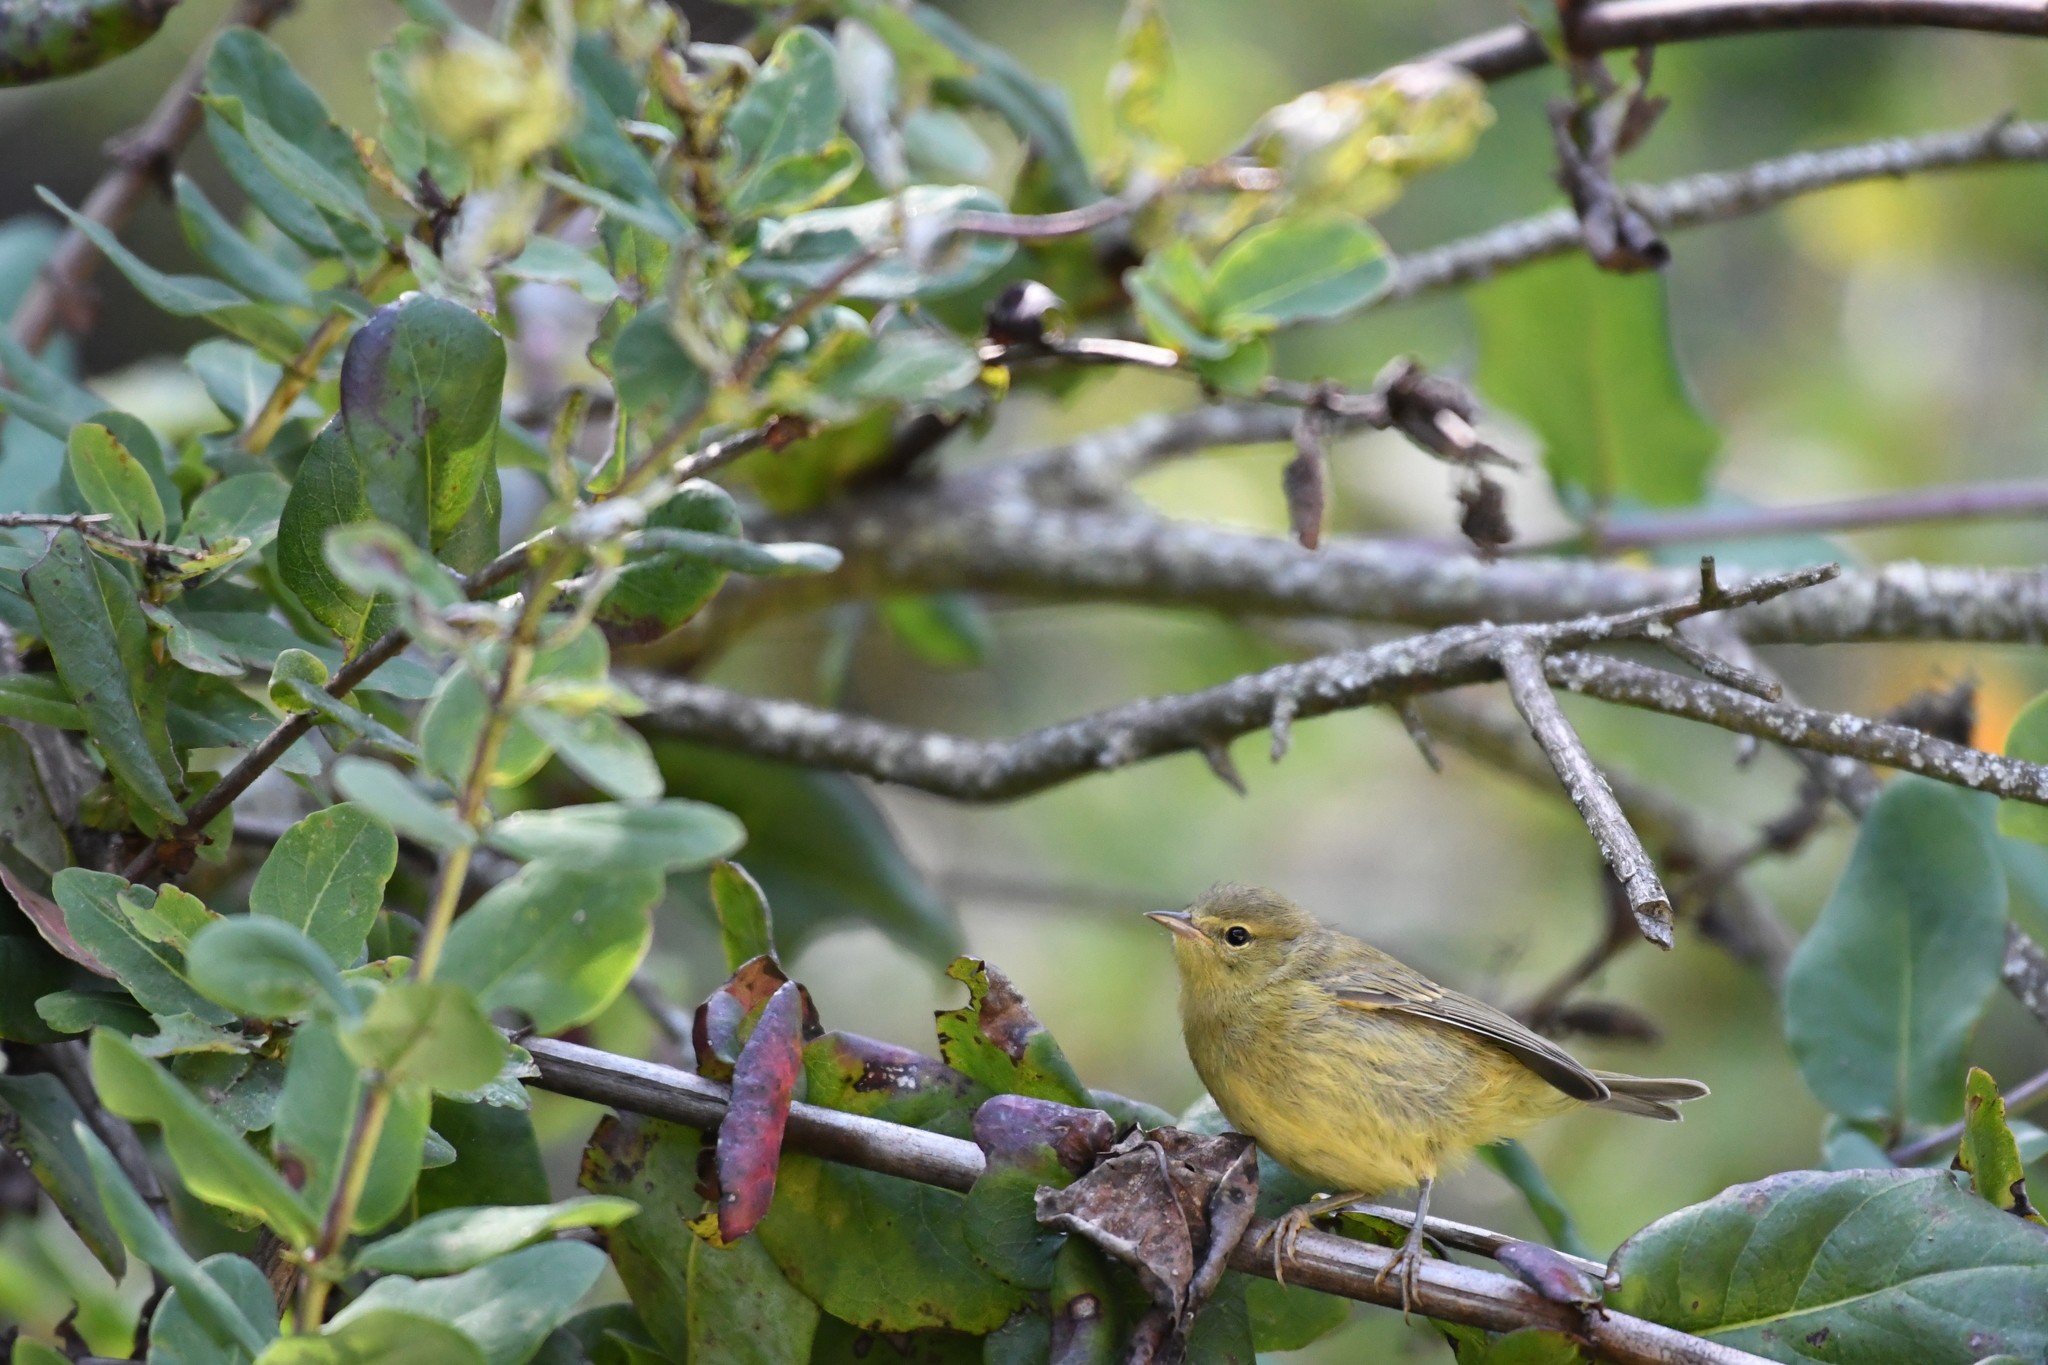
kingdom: Animalia
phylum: Chordata
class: Aves
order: Passeriformes
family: Parulidae
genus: Leiothlypis
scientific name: Leiothlypis celata
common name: Orange-crowned warbler
